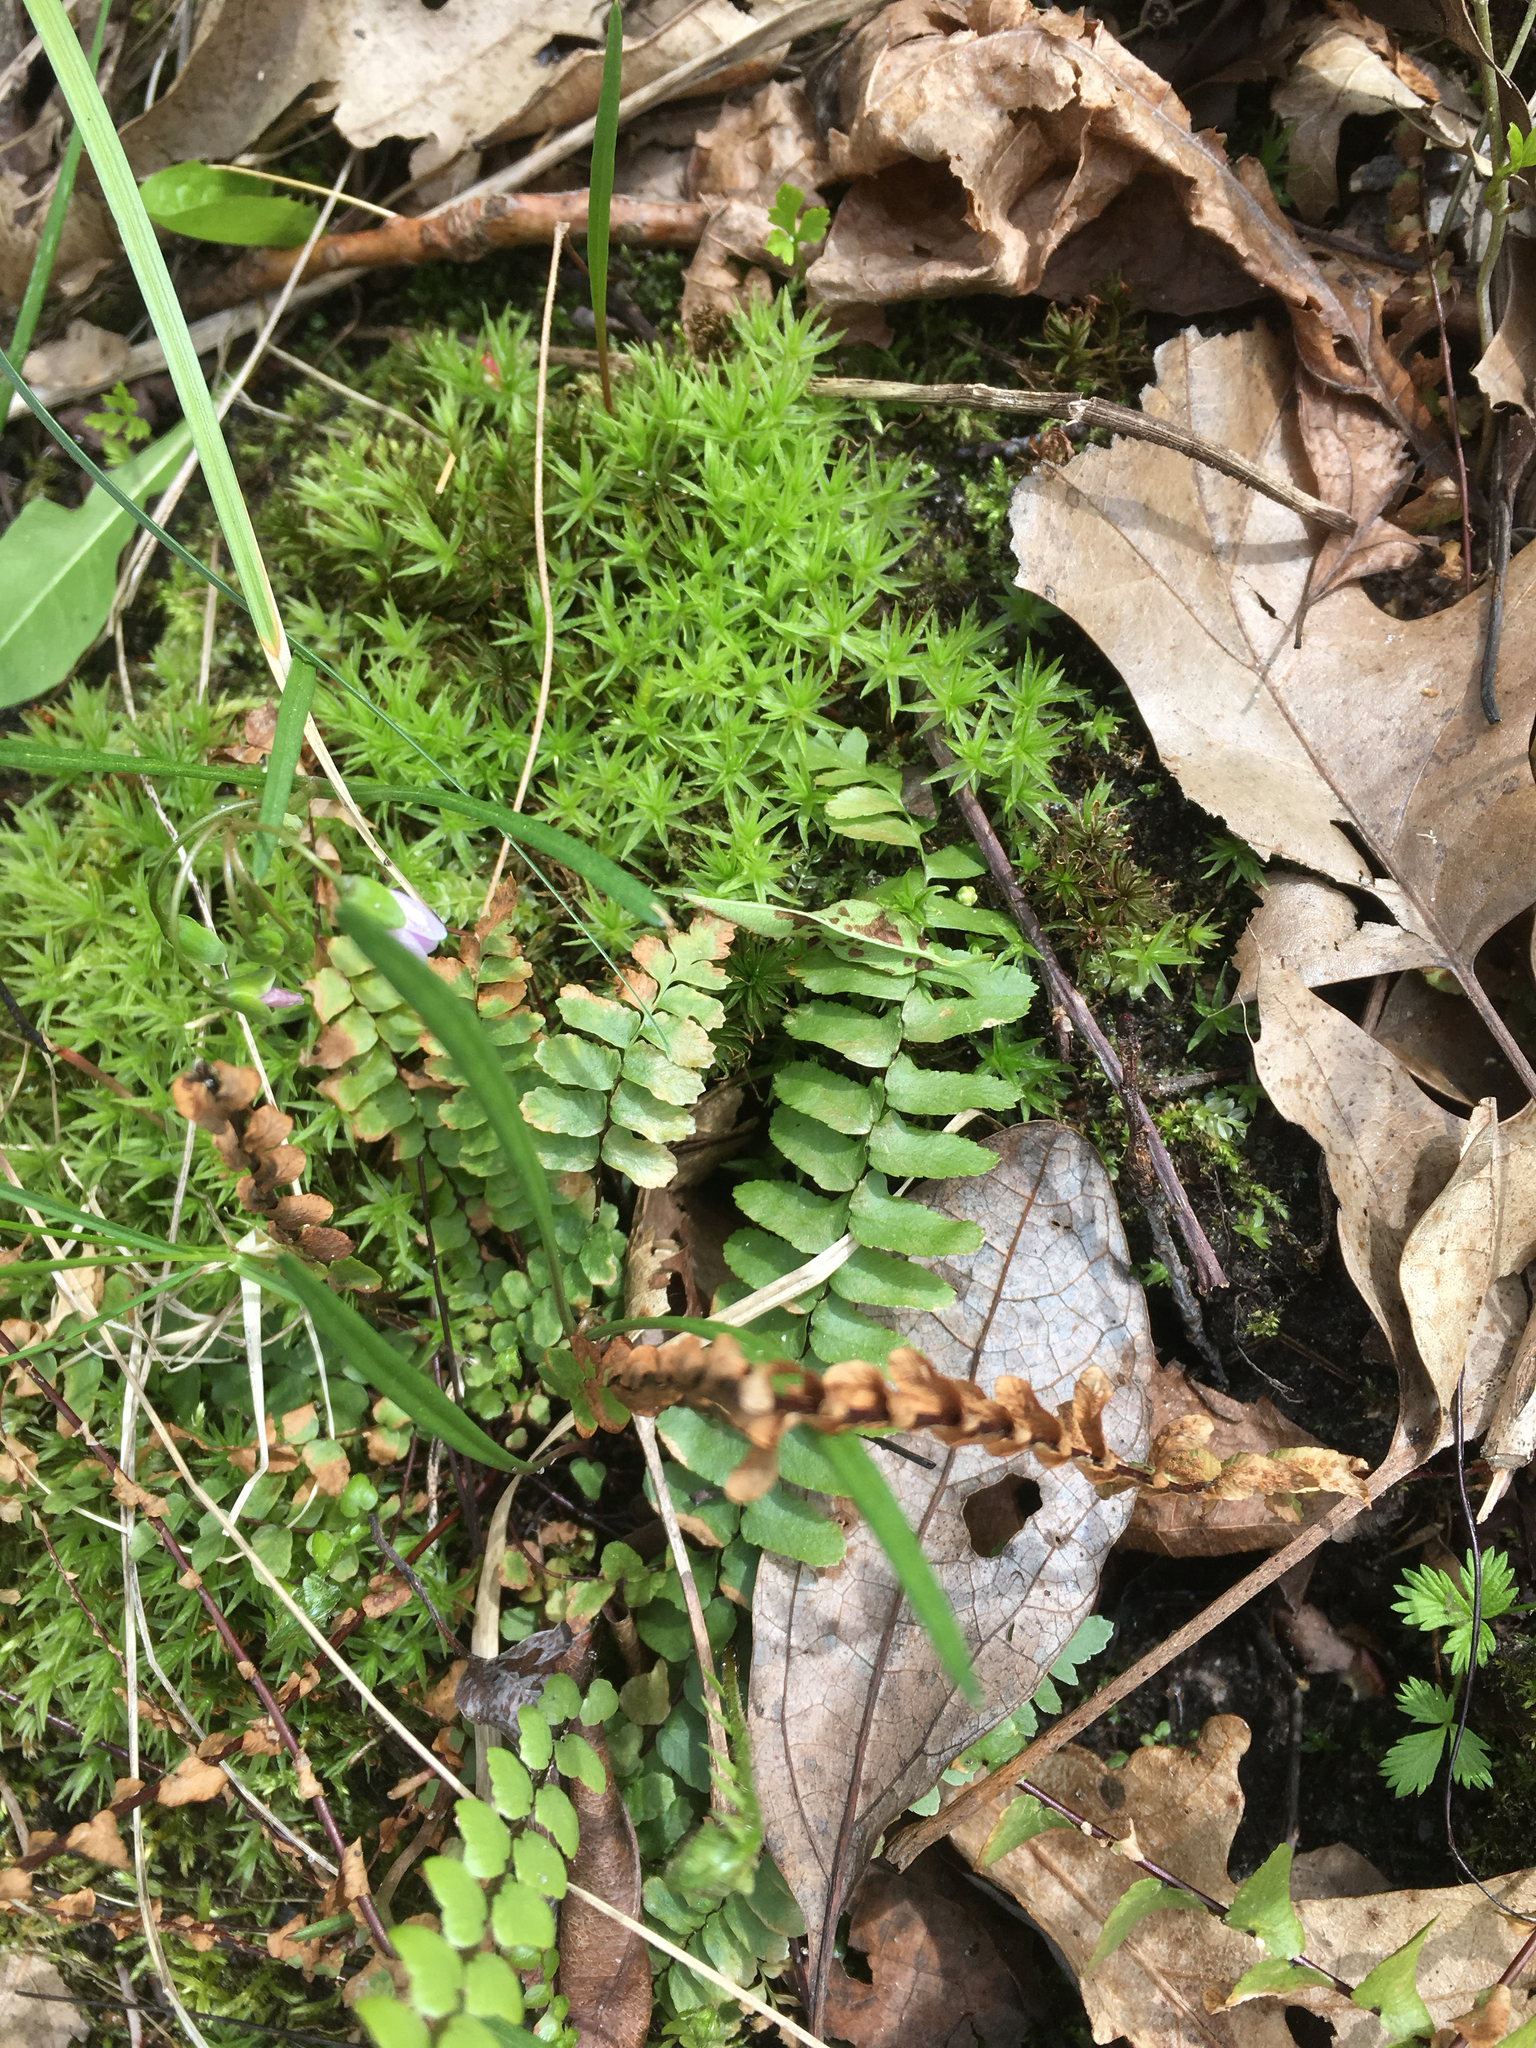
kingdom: Plantae
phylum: Tracheophyta
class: Polypodiopsida
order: Polypodiales
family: Aspleniaceae
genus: Asplenium
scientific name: Asplenium platyneuron
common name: Ebony spleenwort
